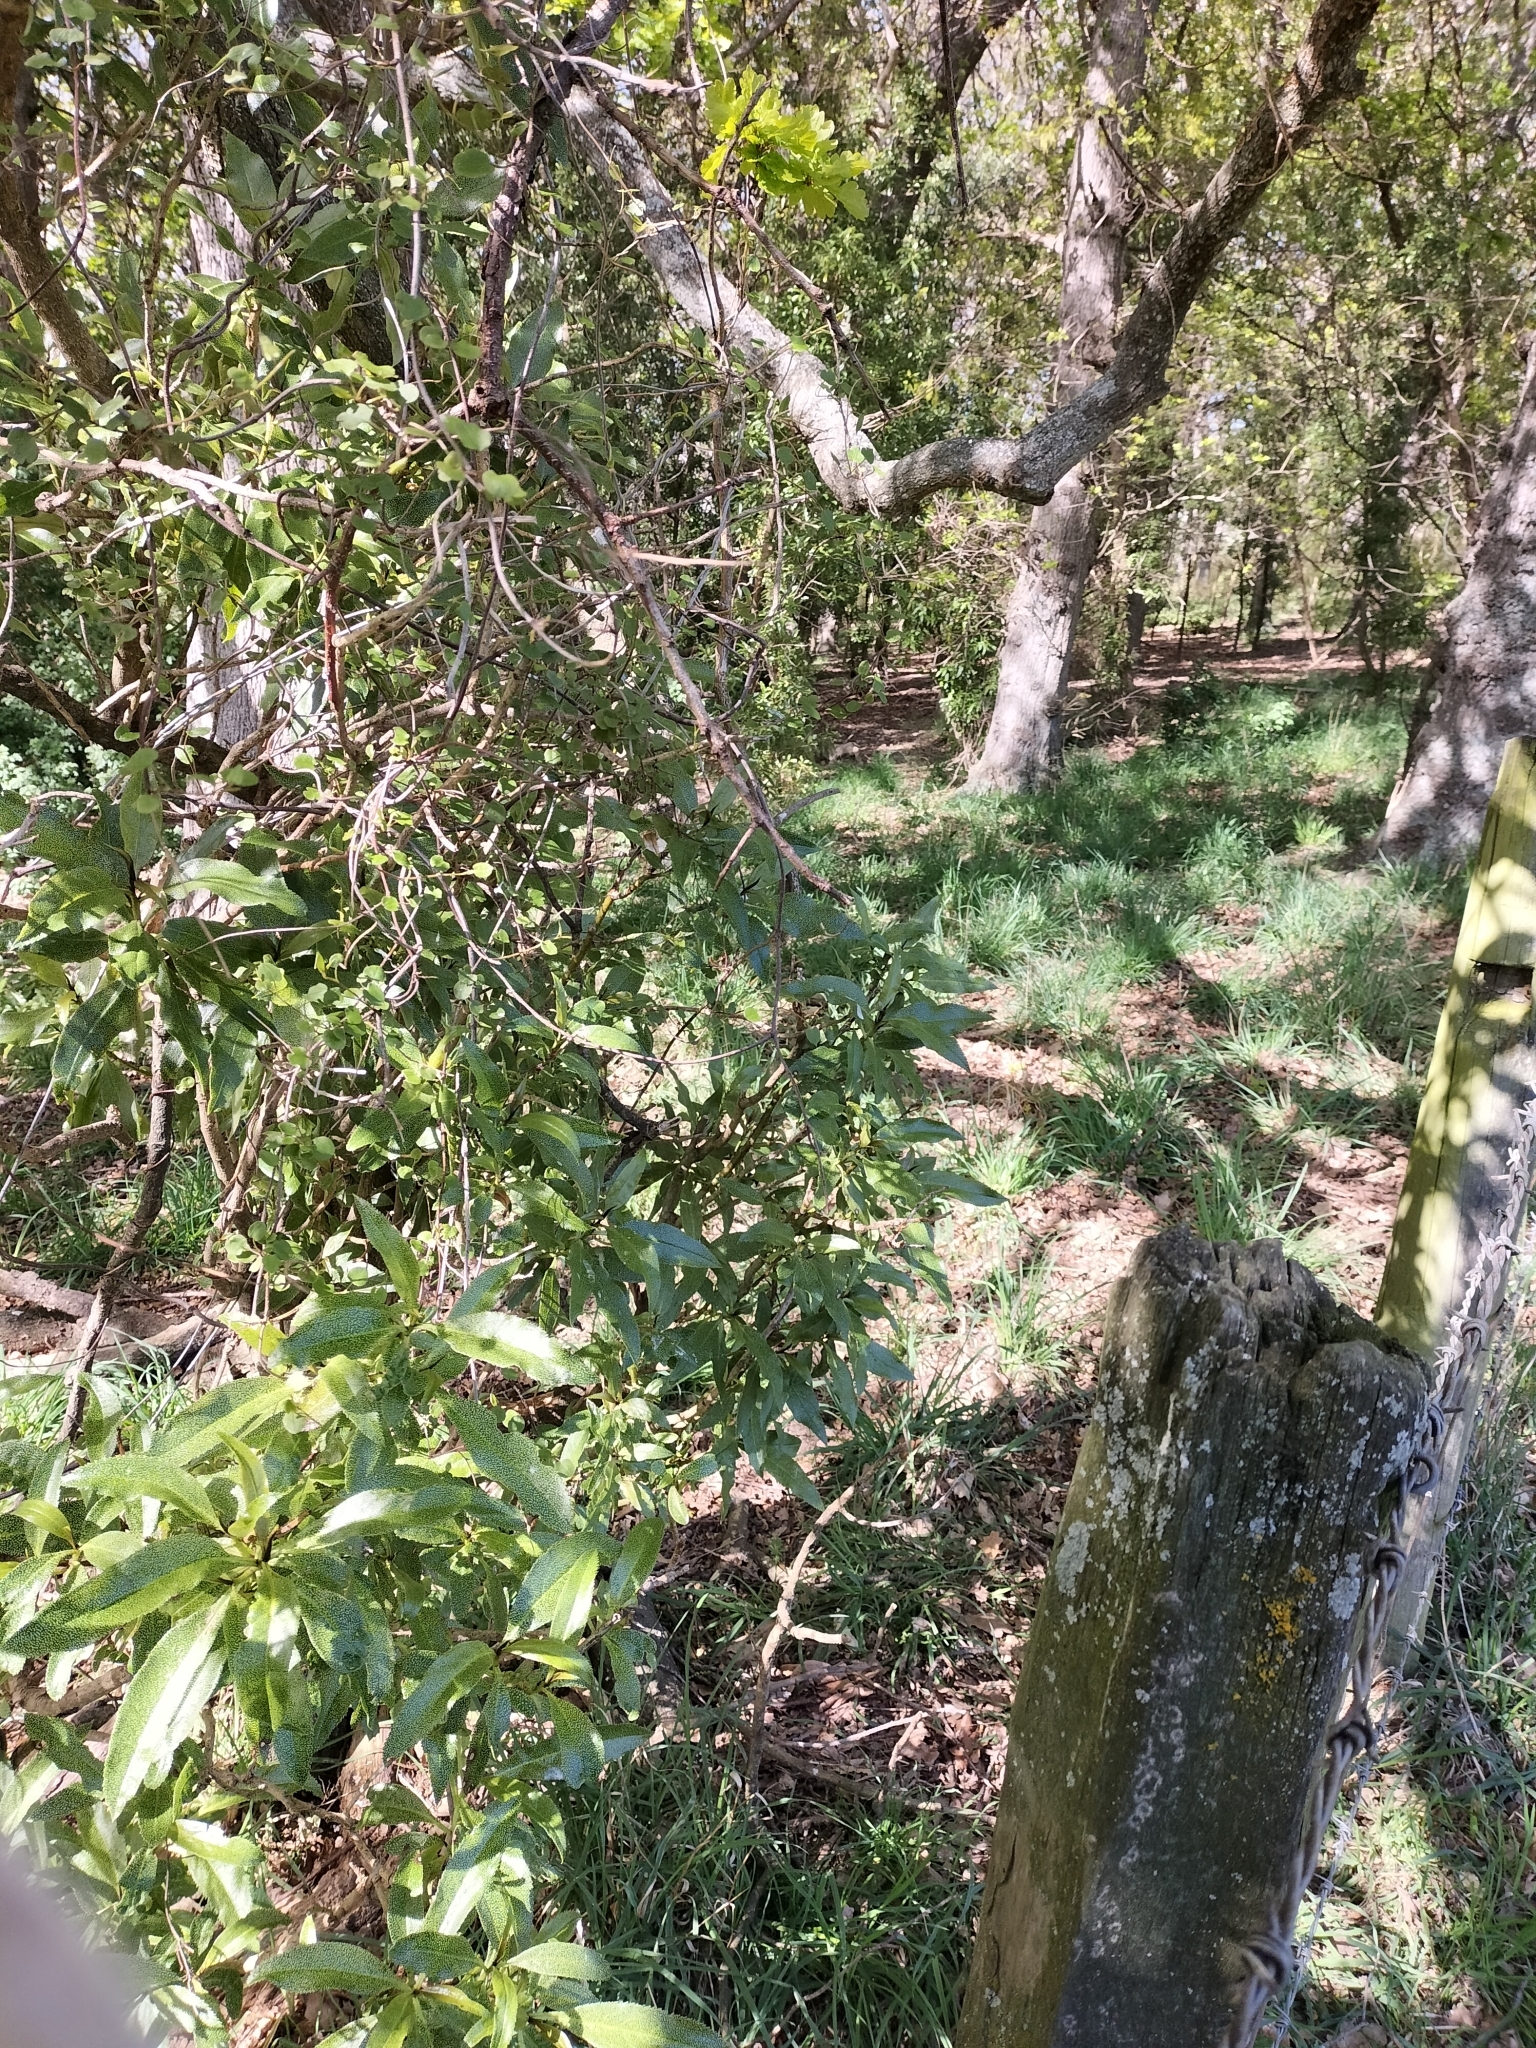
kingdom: Plantae
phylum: Tracheophyta
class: Magnoliopsida
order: Lamiales
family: Scrophulariaceae
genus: Myoporum
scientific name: Myoporum laetum
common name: Ngaio tree
